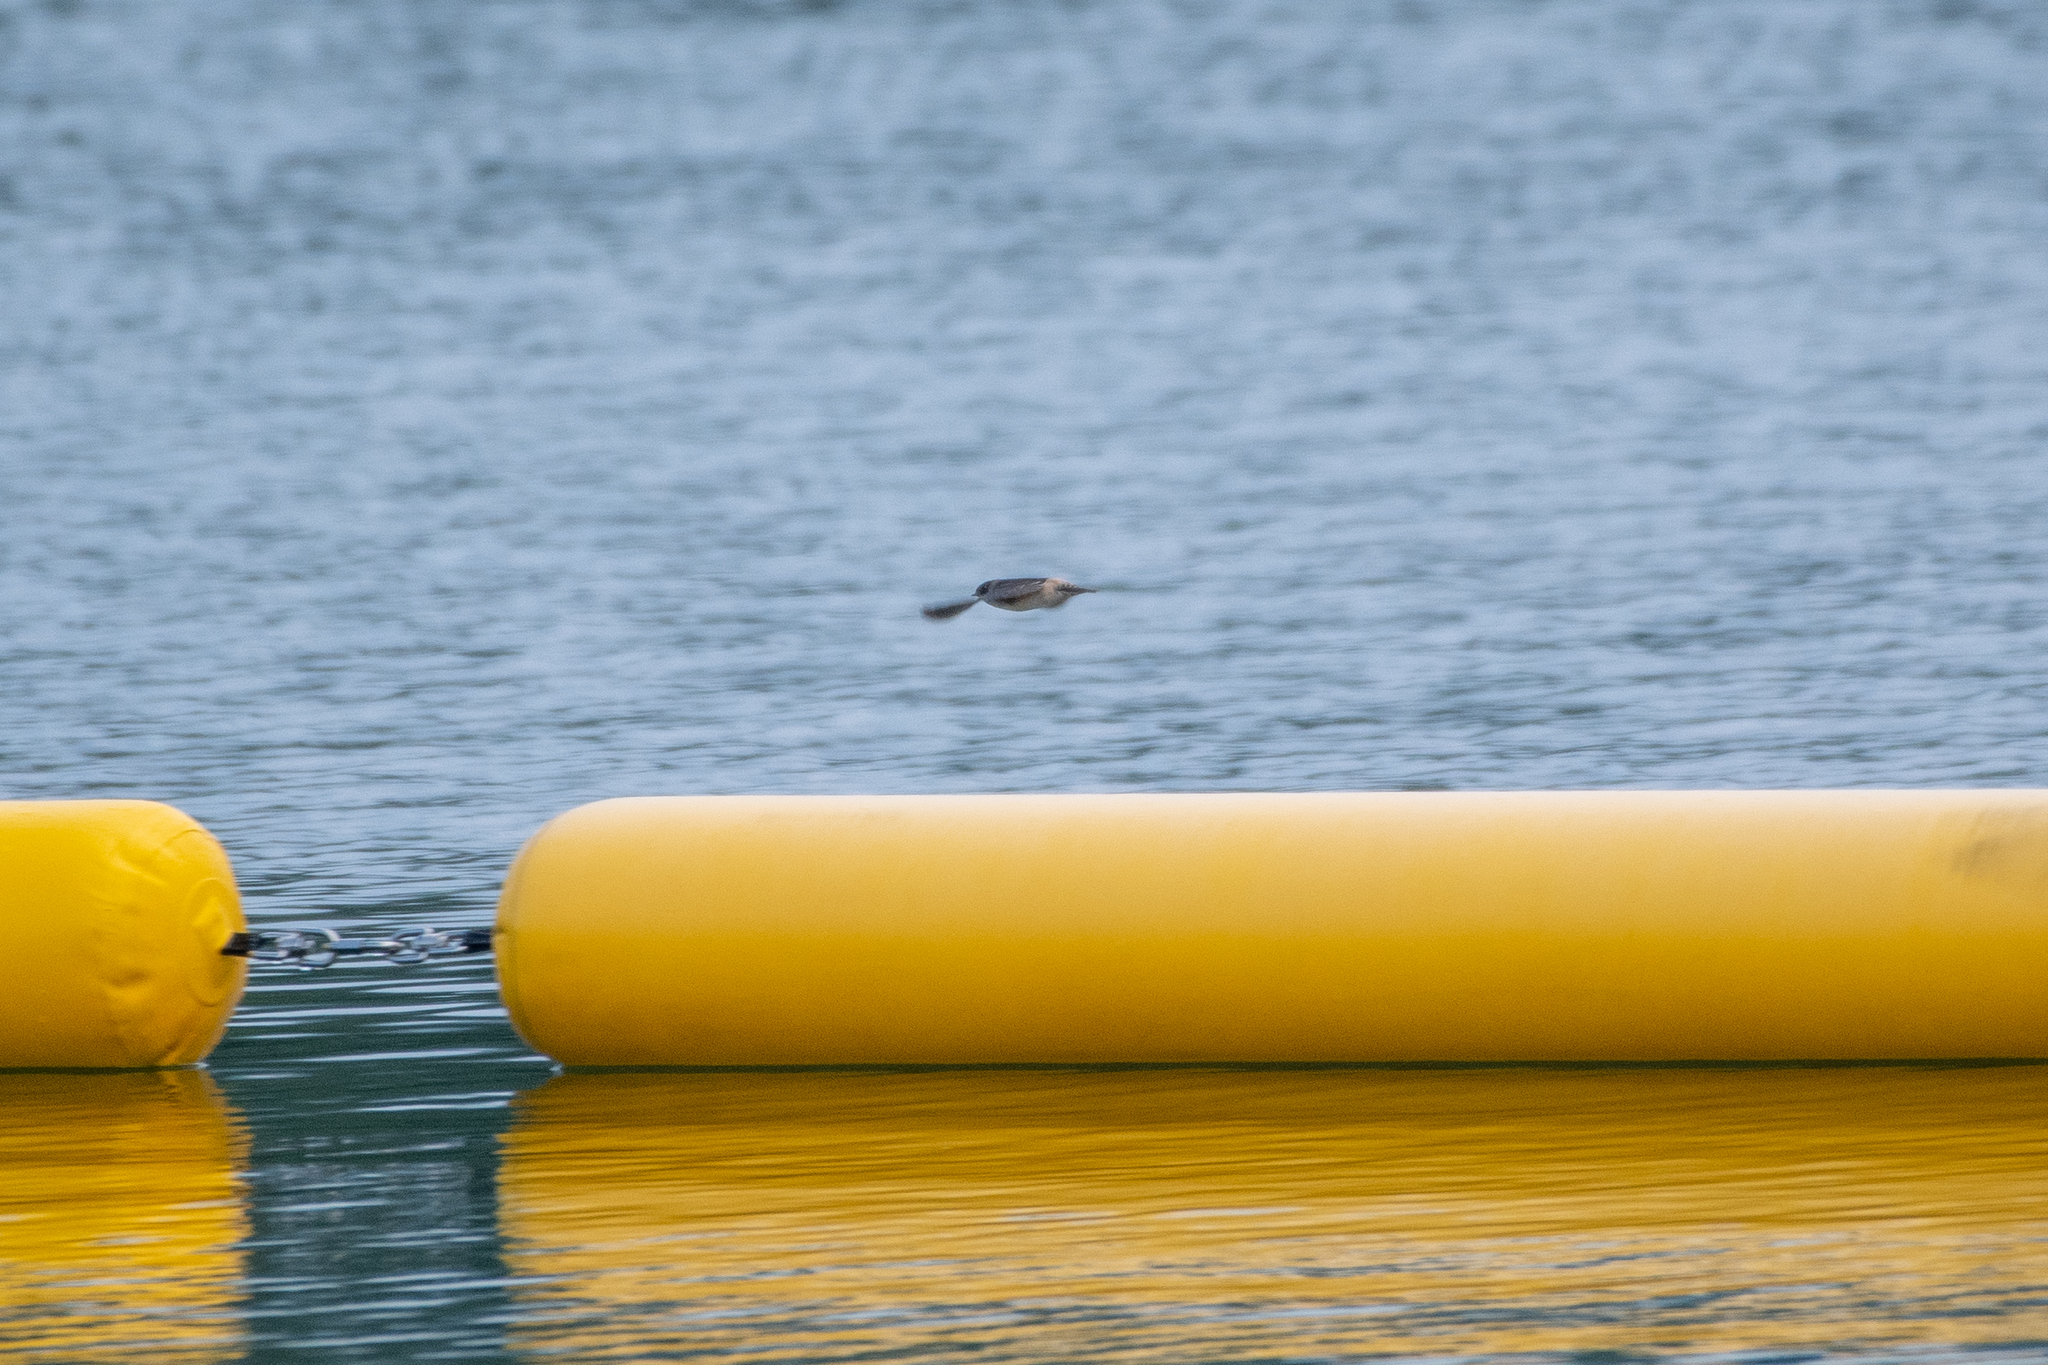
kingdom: Animalia
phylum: Chordata
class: Aves
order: Passeriformes
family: Hirundinidae
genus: Petrochelidon
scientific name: Petrochelidon pyrrhonota
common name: American cliff swallow
